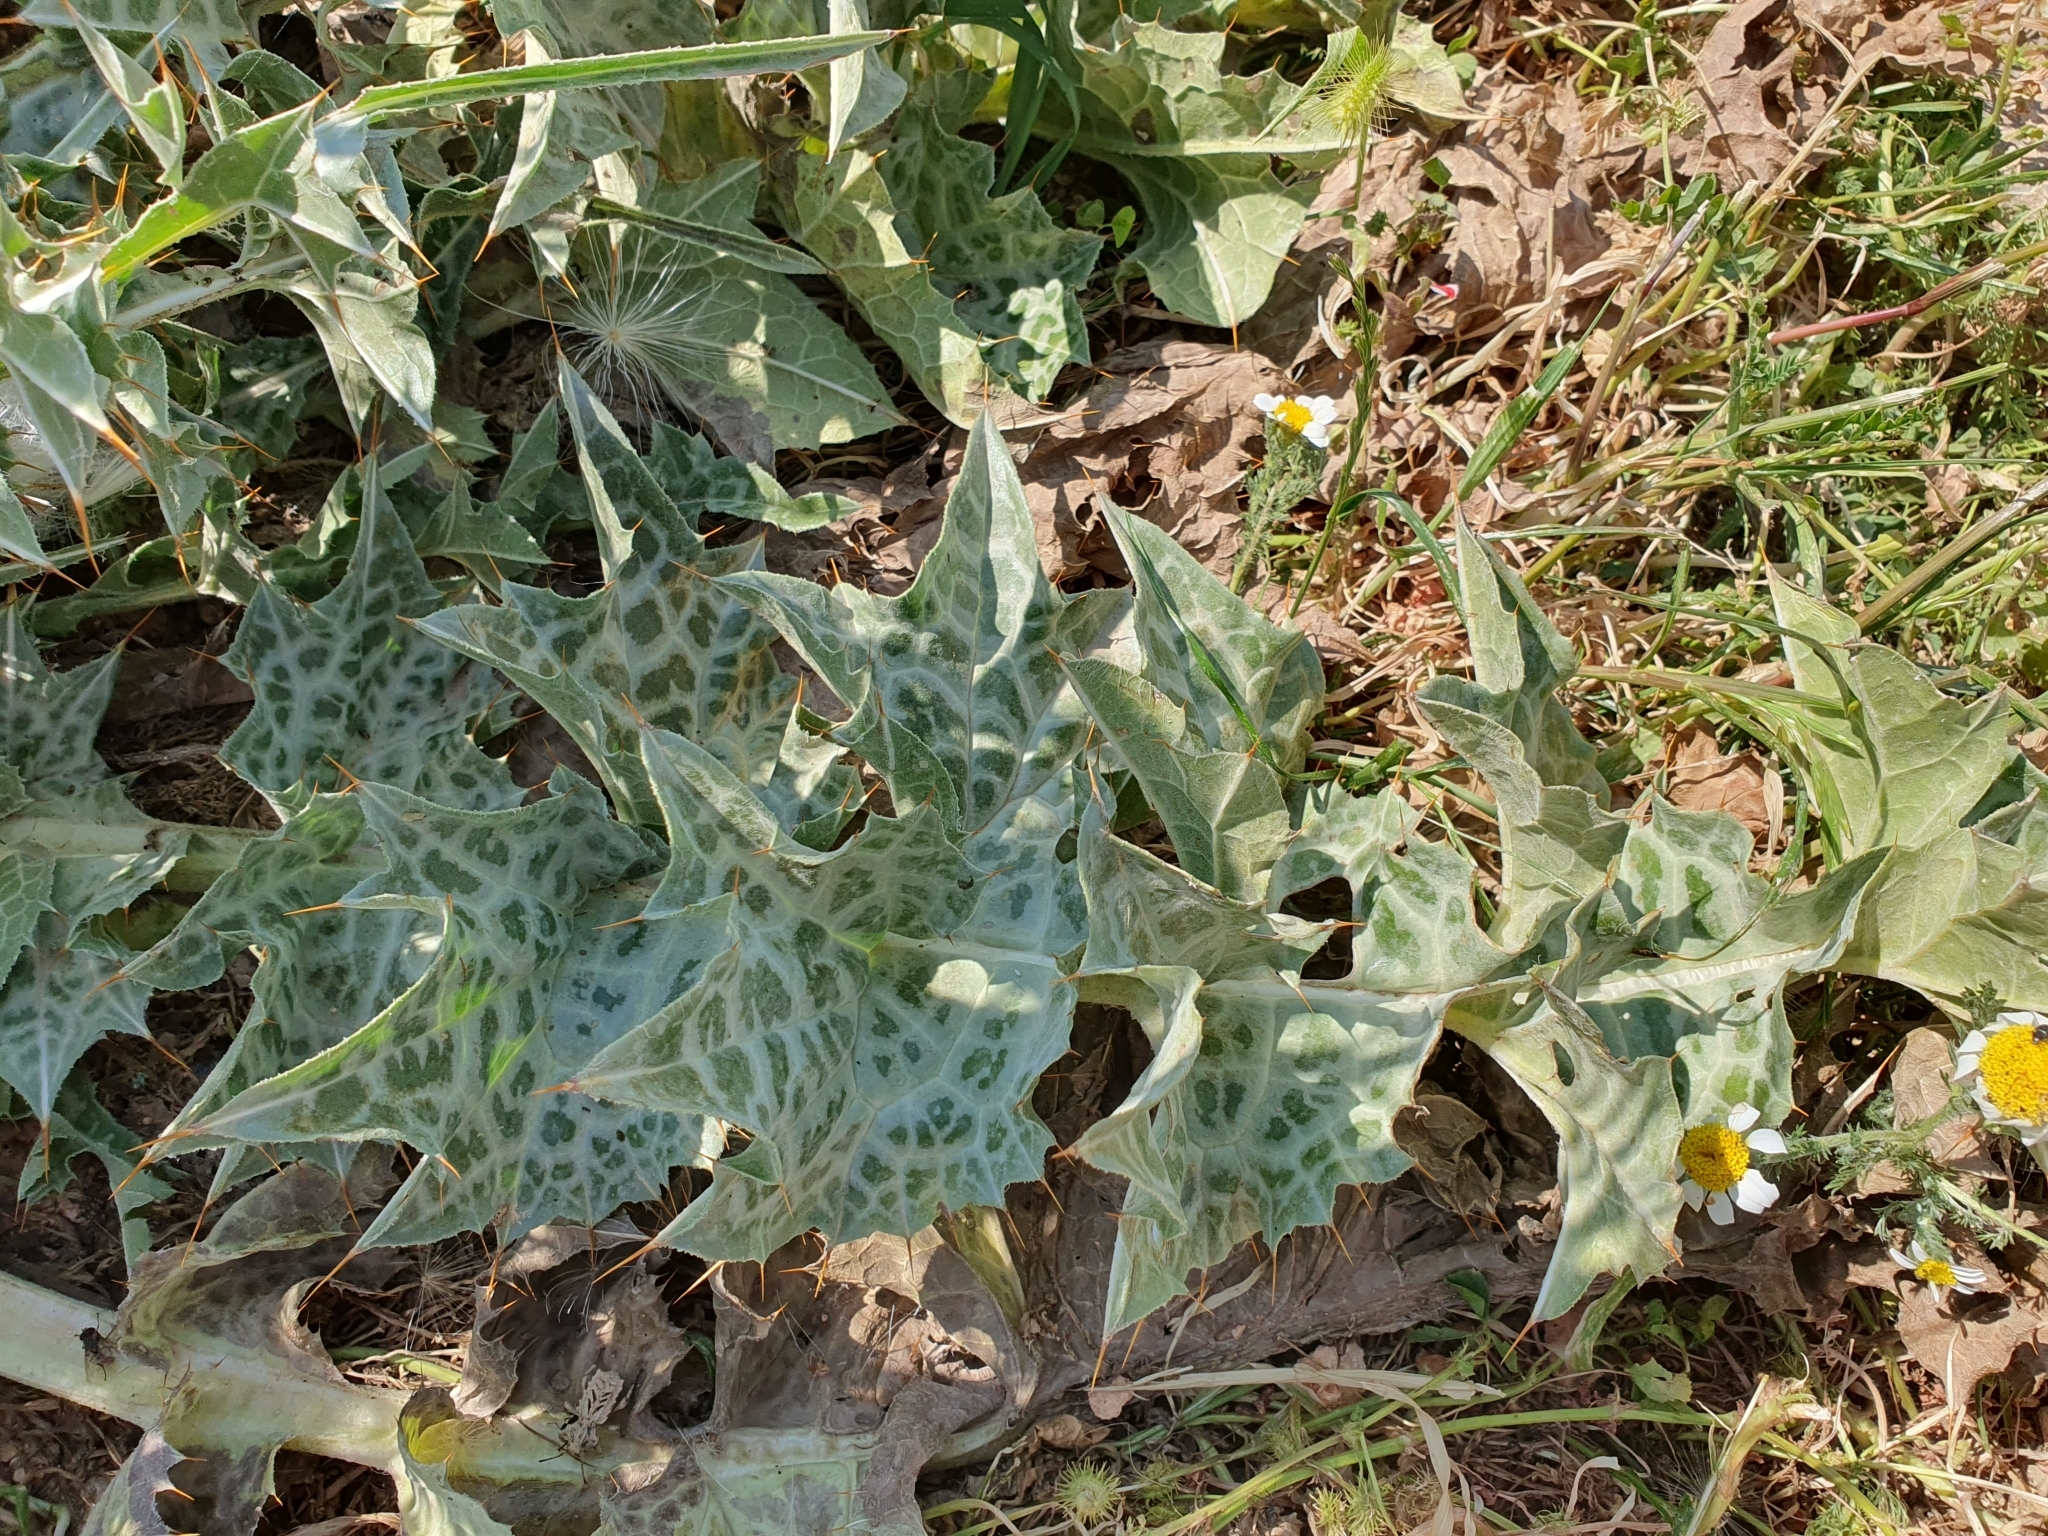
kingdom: Plantae
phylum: Tracheophyta
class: Magnoliopsida
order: Asterales
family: Asteraceae
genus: Silybum
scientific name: Silybum eburneum
